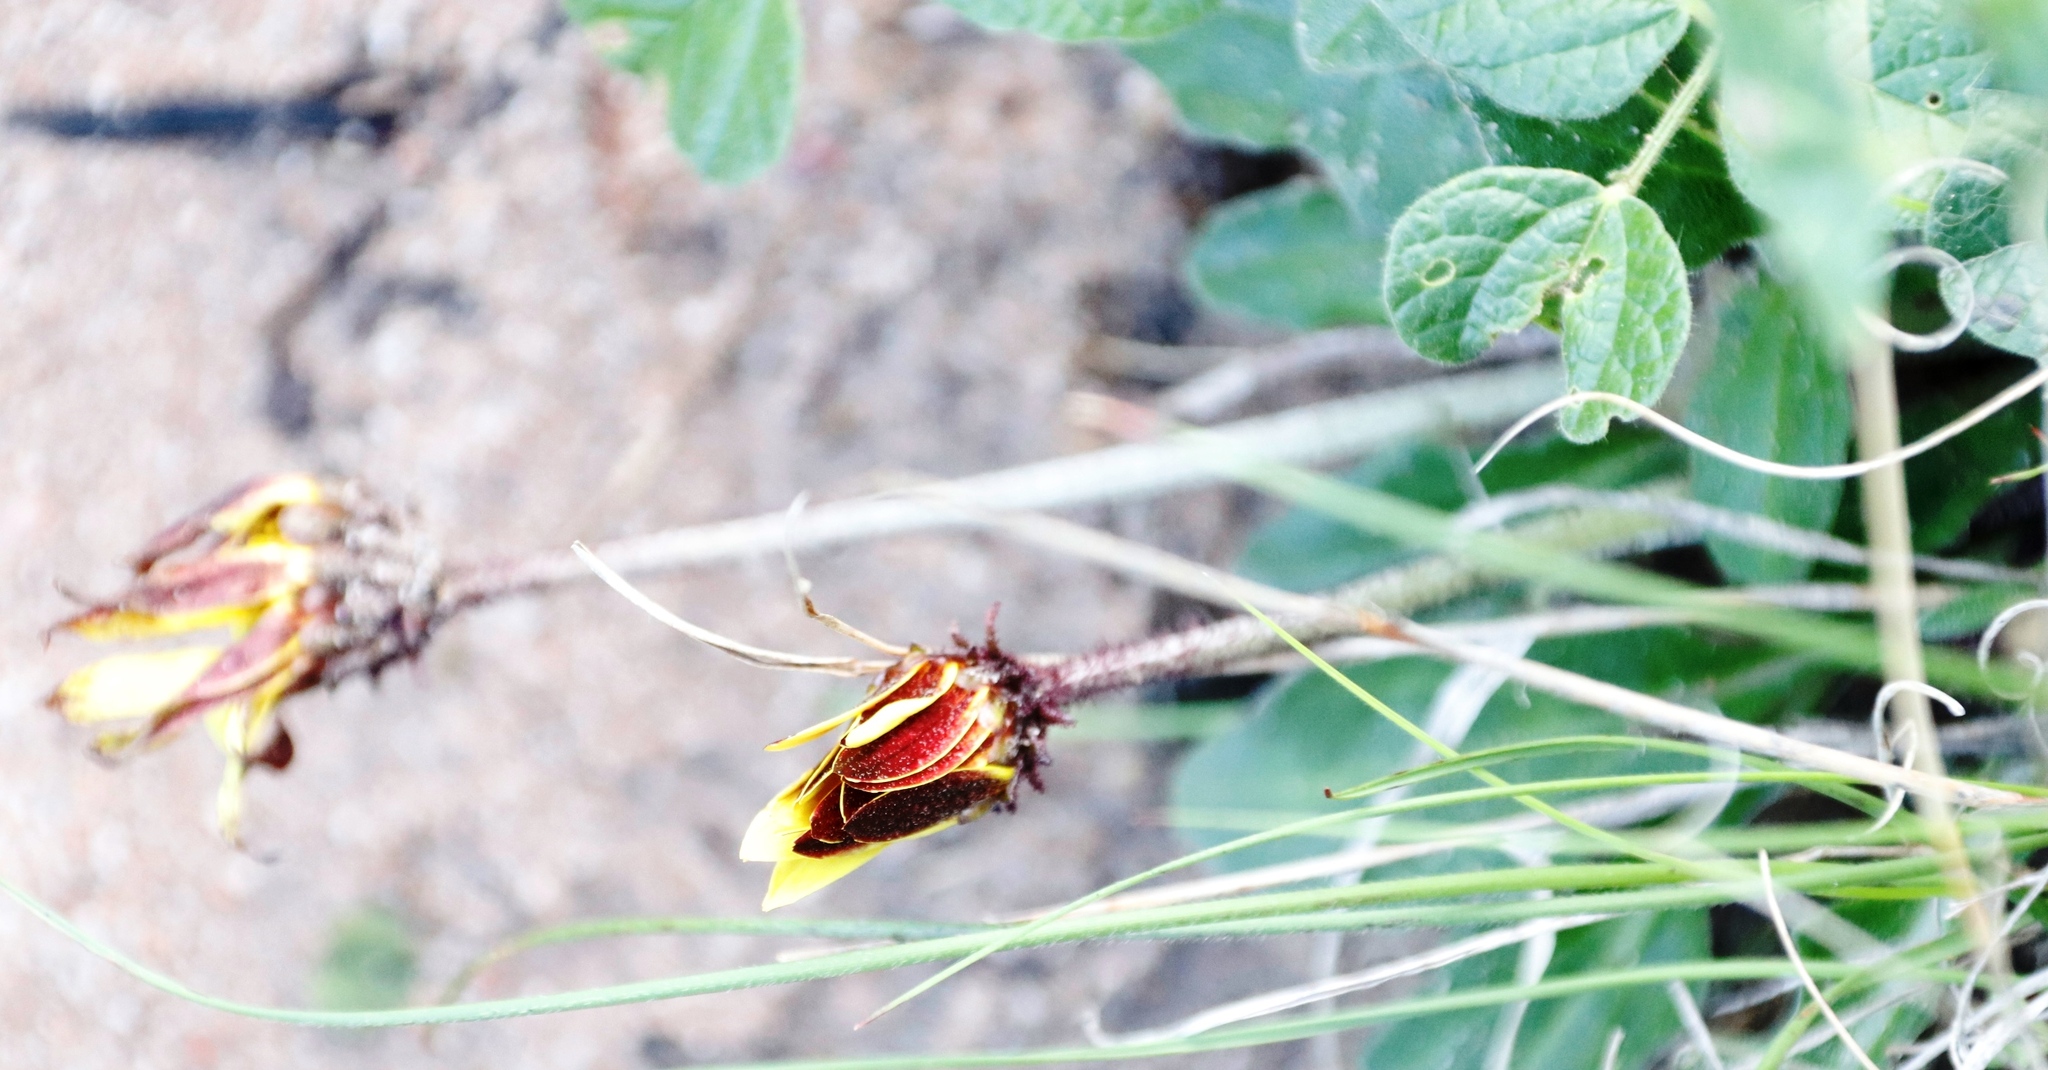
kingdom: Plantae
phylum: Tracheophyta
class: Magnoliopsida
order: Asterales
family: Asteraceae
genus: Haplocarpha
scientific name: Haplocarpha lanata
